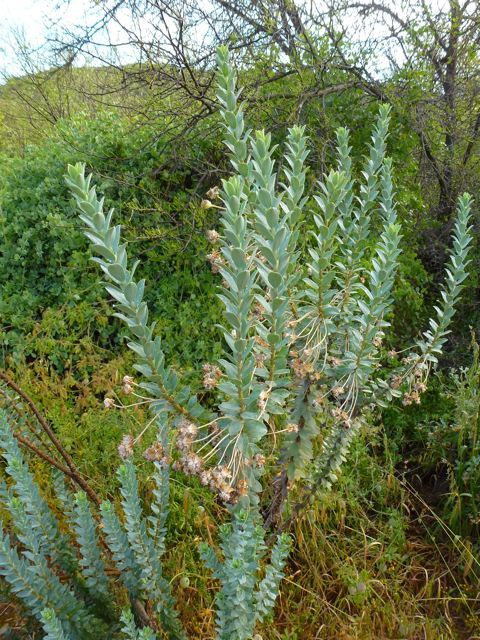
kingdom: Plantae
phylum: Tracheophyta
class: Magnoliopsida
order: Asterales
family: Asteraceae
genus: Euryops
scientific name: Euryops lateriflorus
